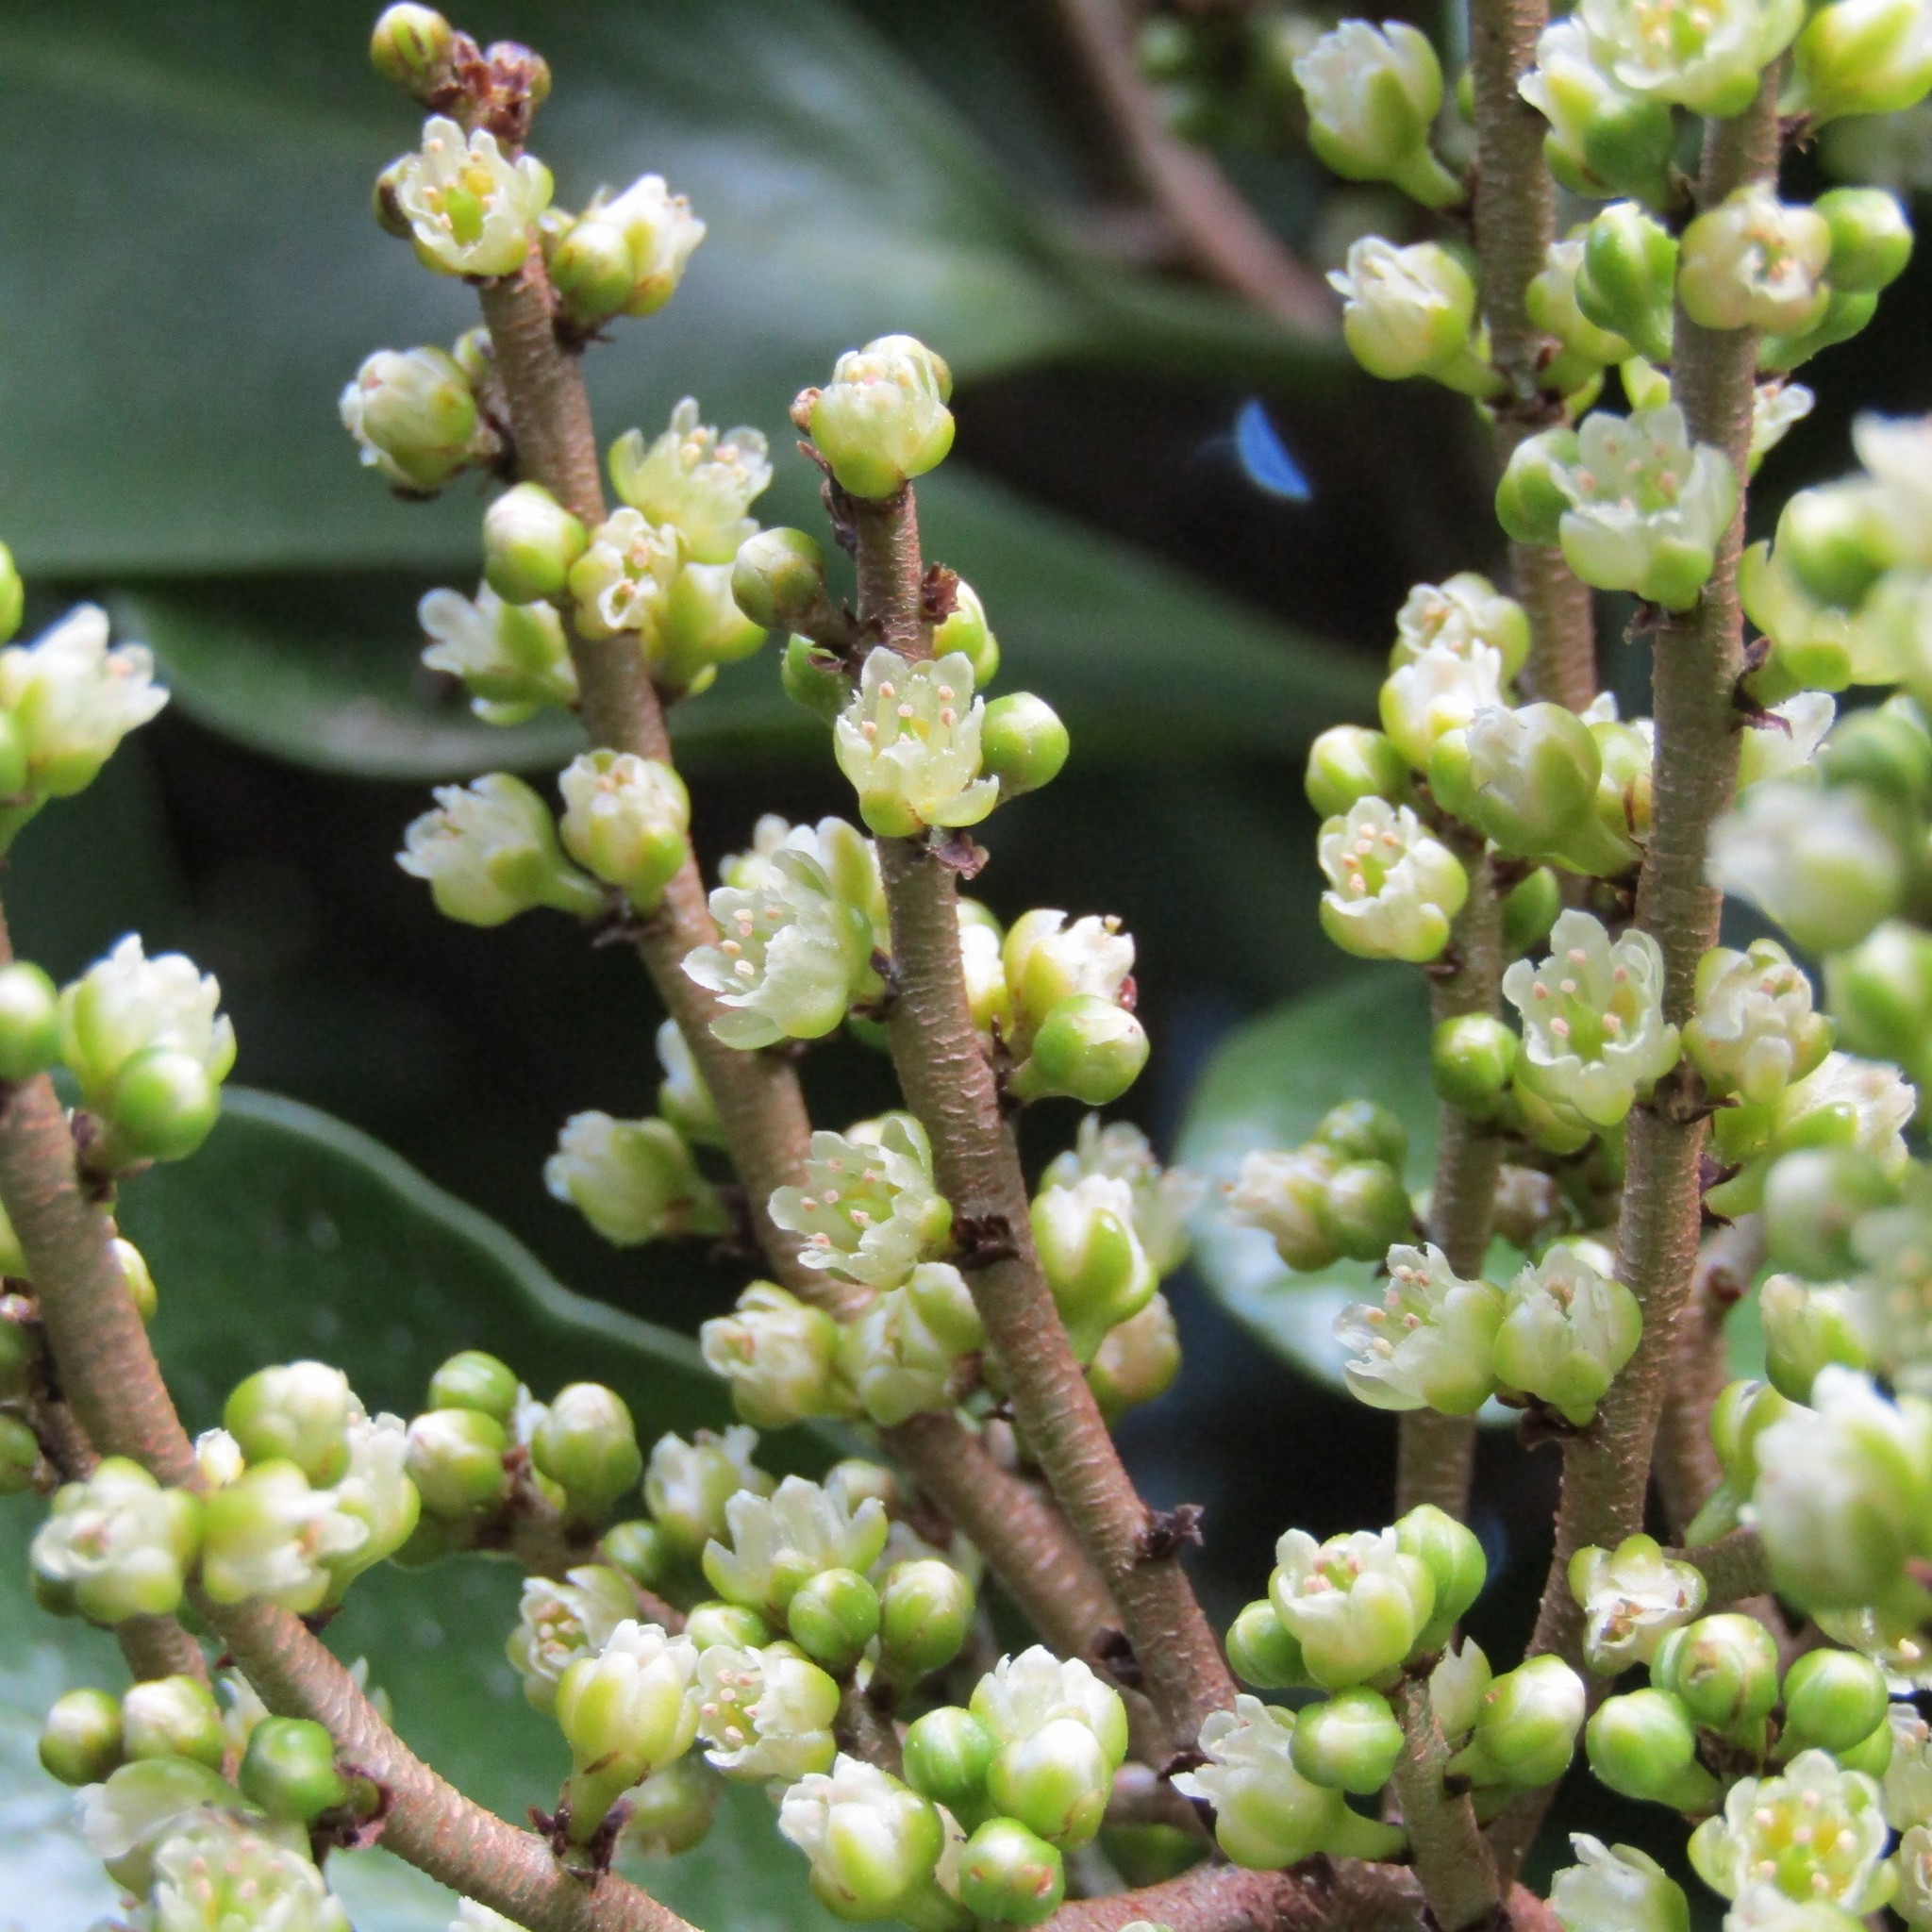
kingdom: Plantae
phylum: Tracheophyta
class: Magnoliopsida
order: Cucurbitales
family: Corynocarpaceae
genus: Corynocarpus
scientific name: Corynocarpus laevigatus
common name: New zealand laurel
